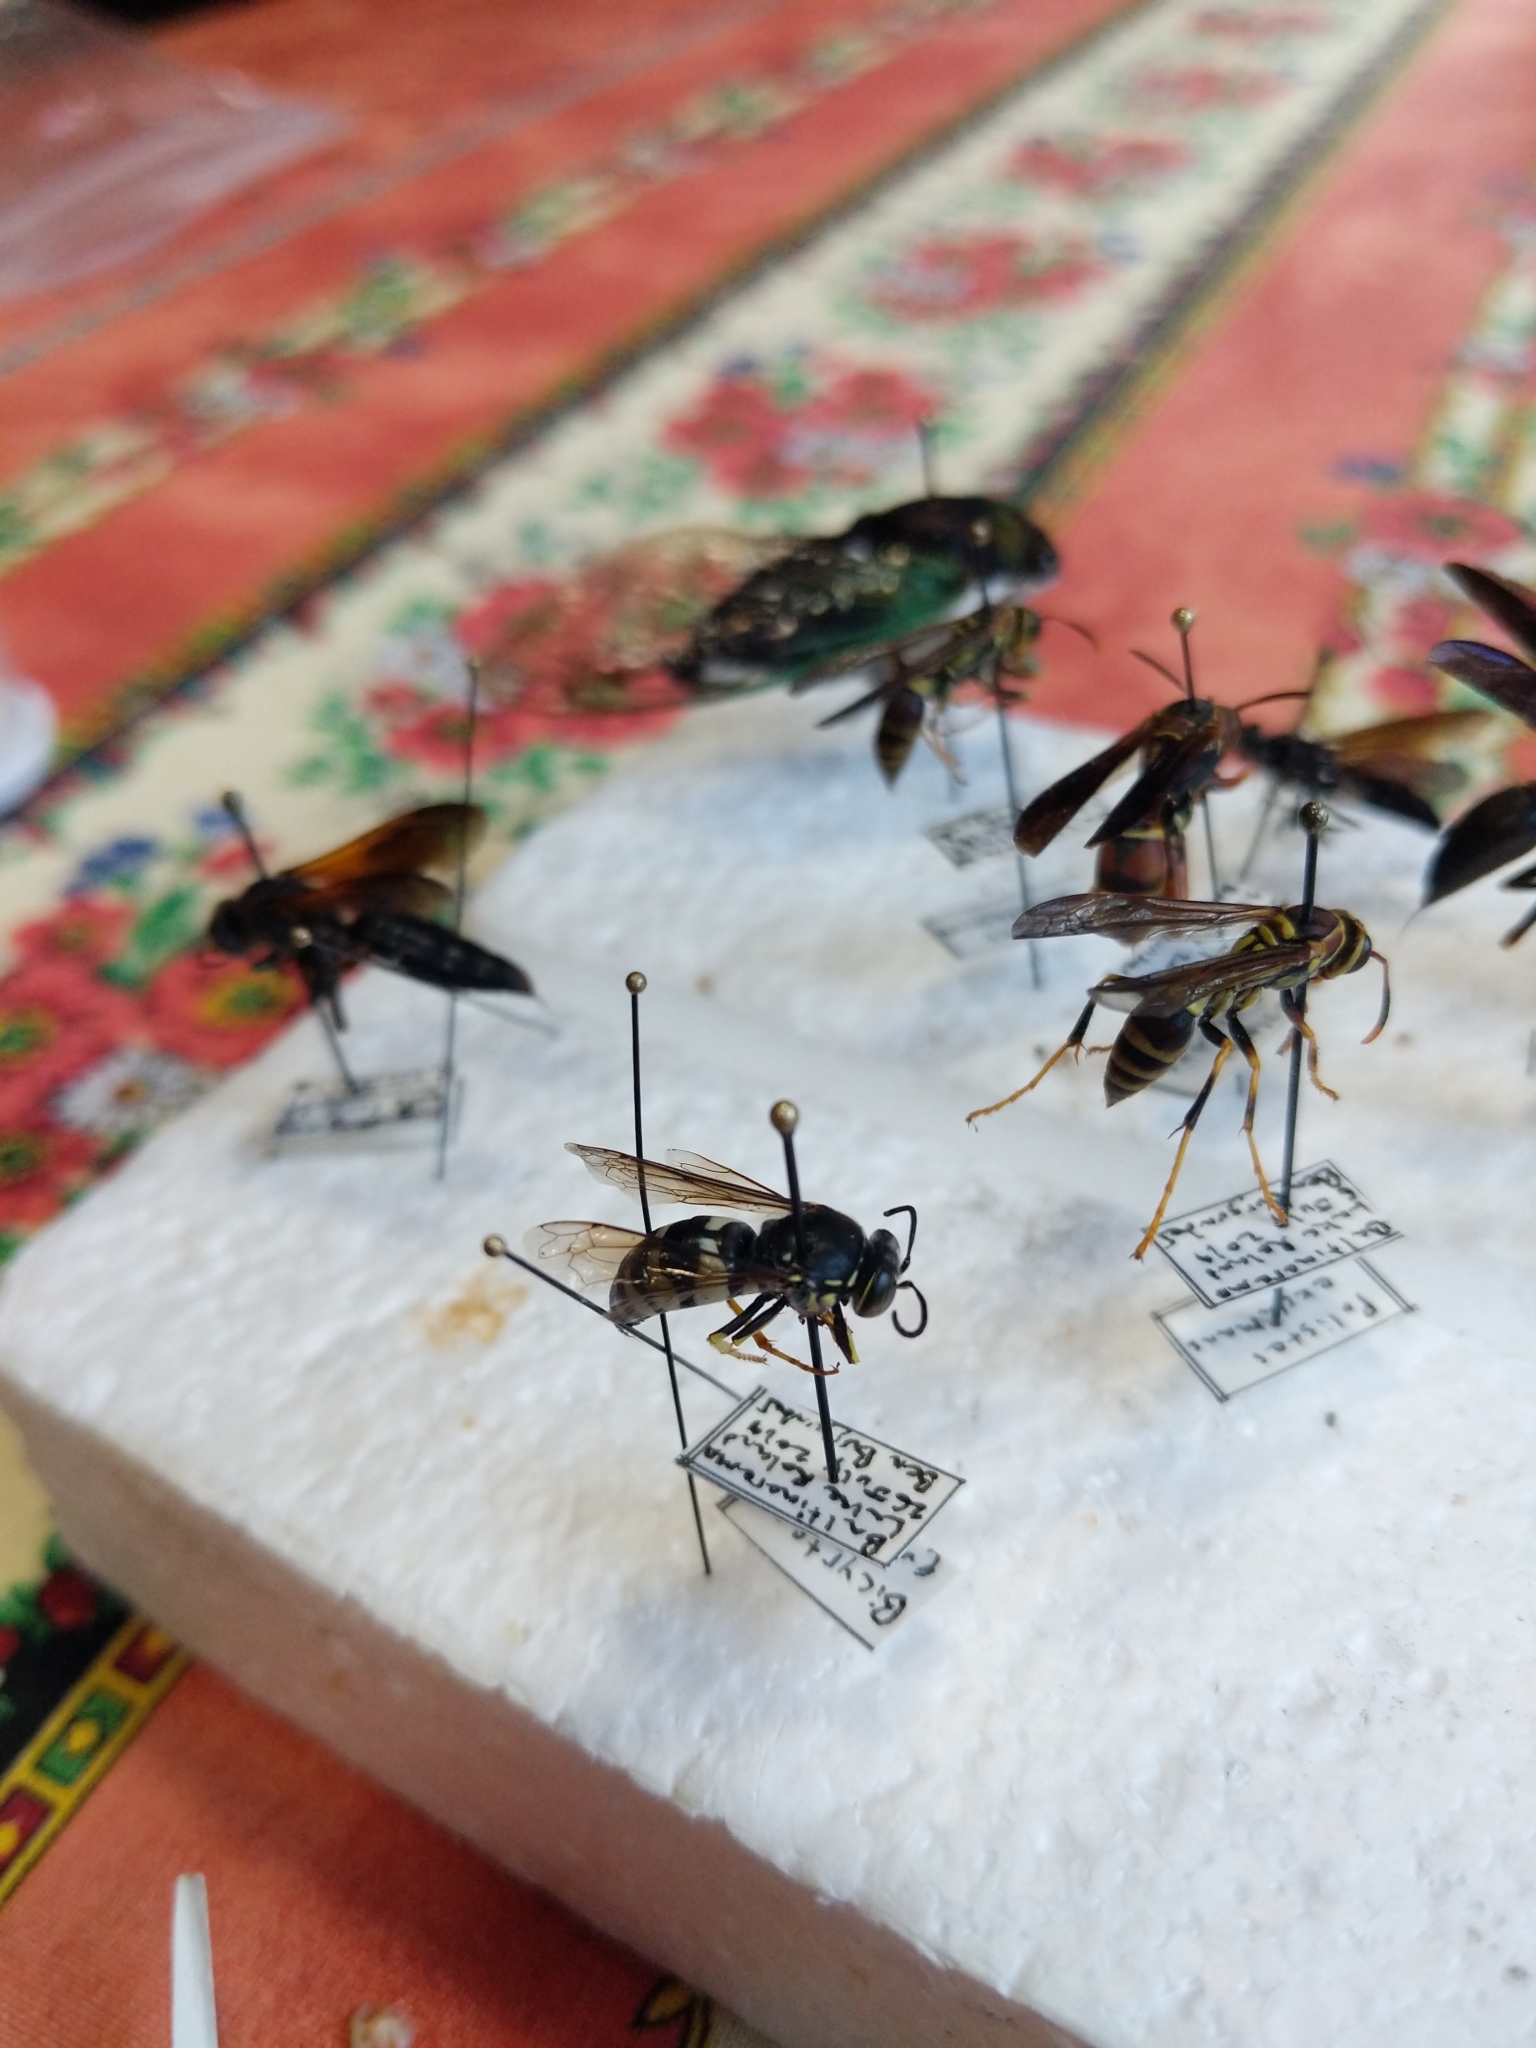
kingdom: Animalia
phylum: Arthropoda
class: Insecta
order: Hymenoptera
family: Crabronidae
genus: Bicyrtes
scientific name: Bicyrtes quadrifasciatus
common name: Four-banded stink bug hunter wasp
